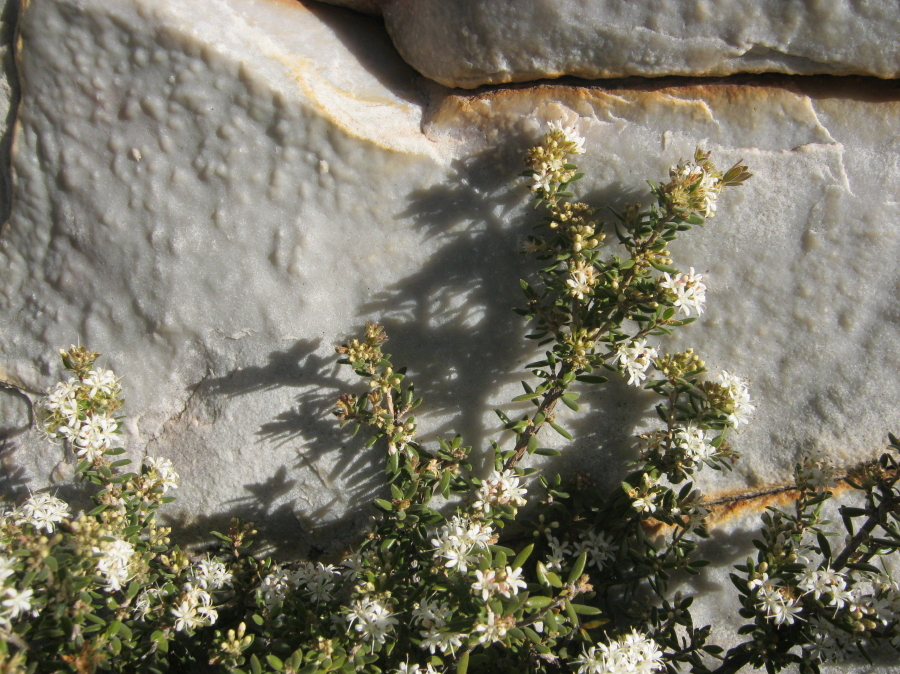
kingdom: Plantae
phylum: Tracheophyta
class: Magnoliopsida
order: Sapindales
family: Rutaceae
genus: Agathosma
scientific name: Agathosma mundtii
